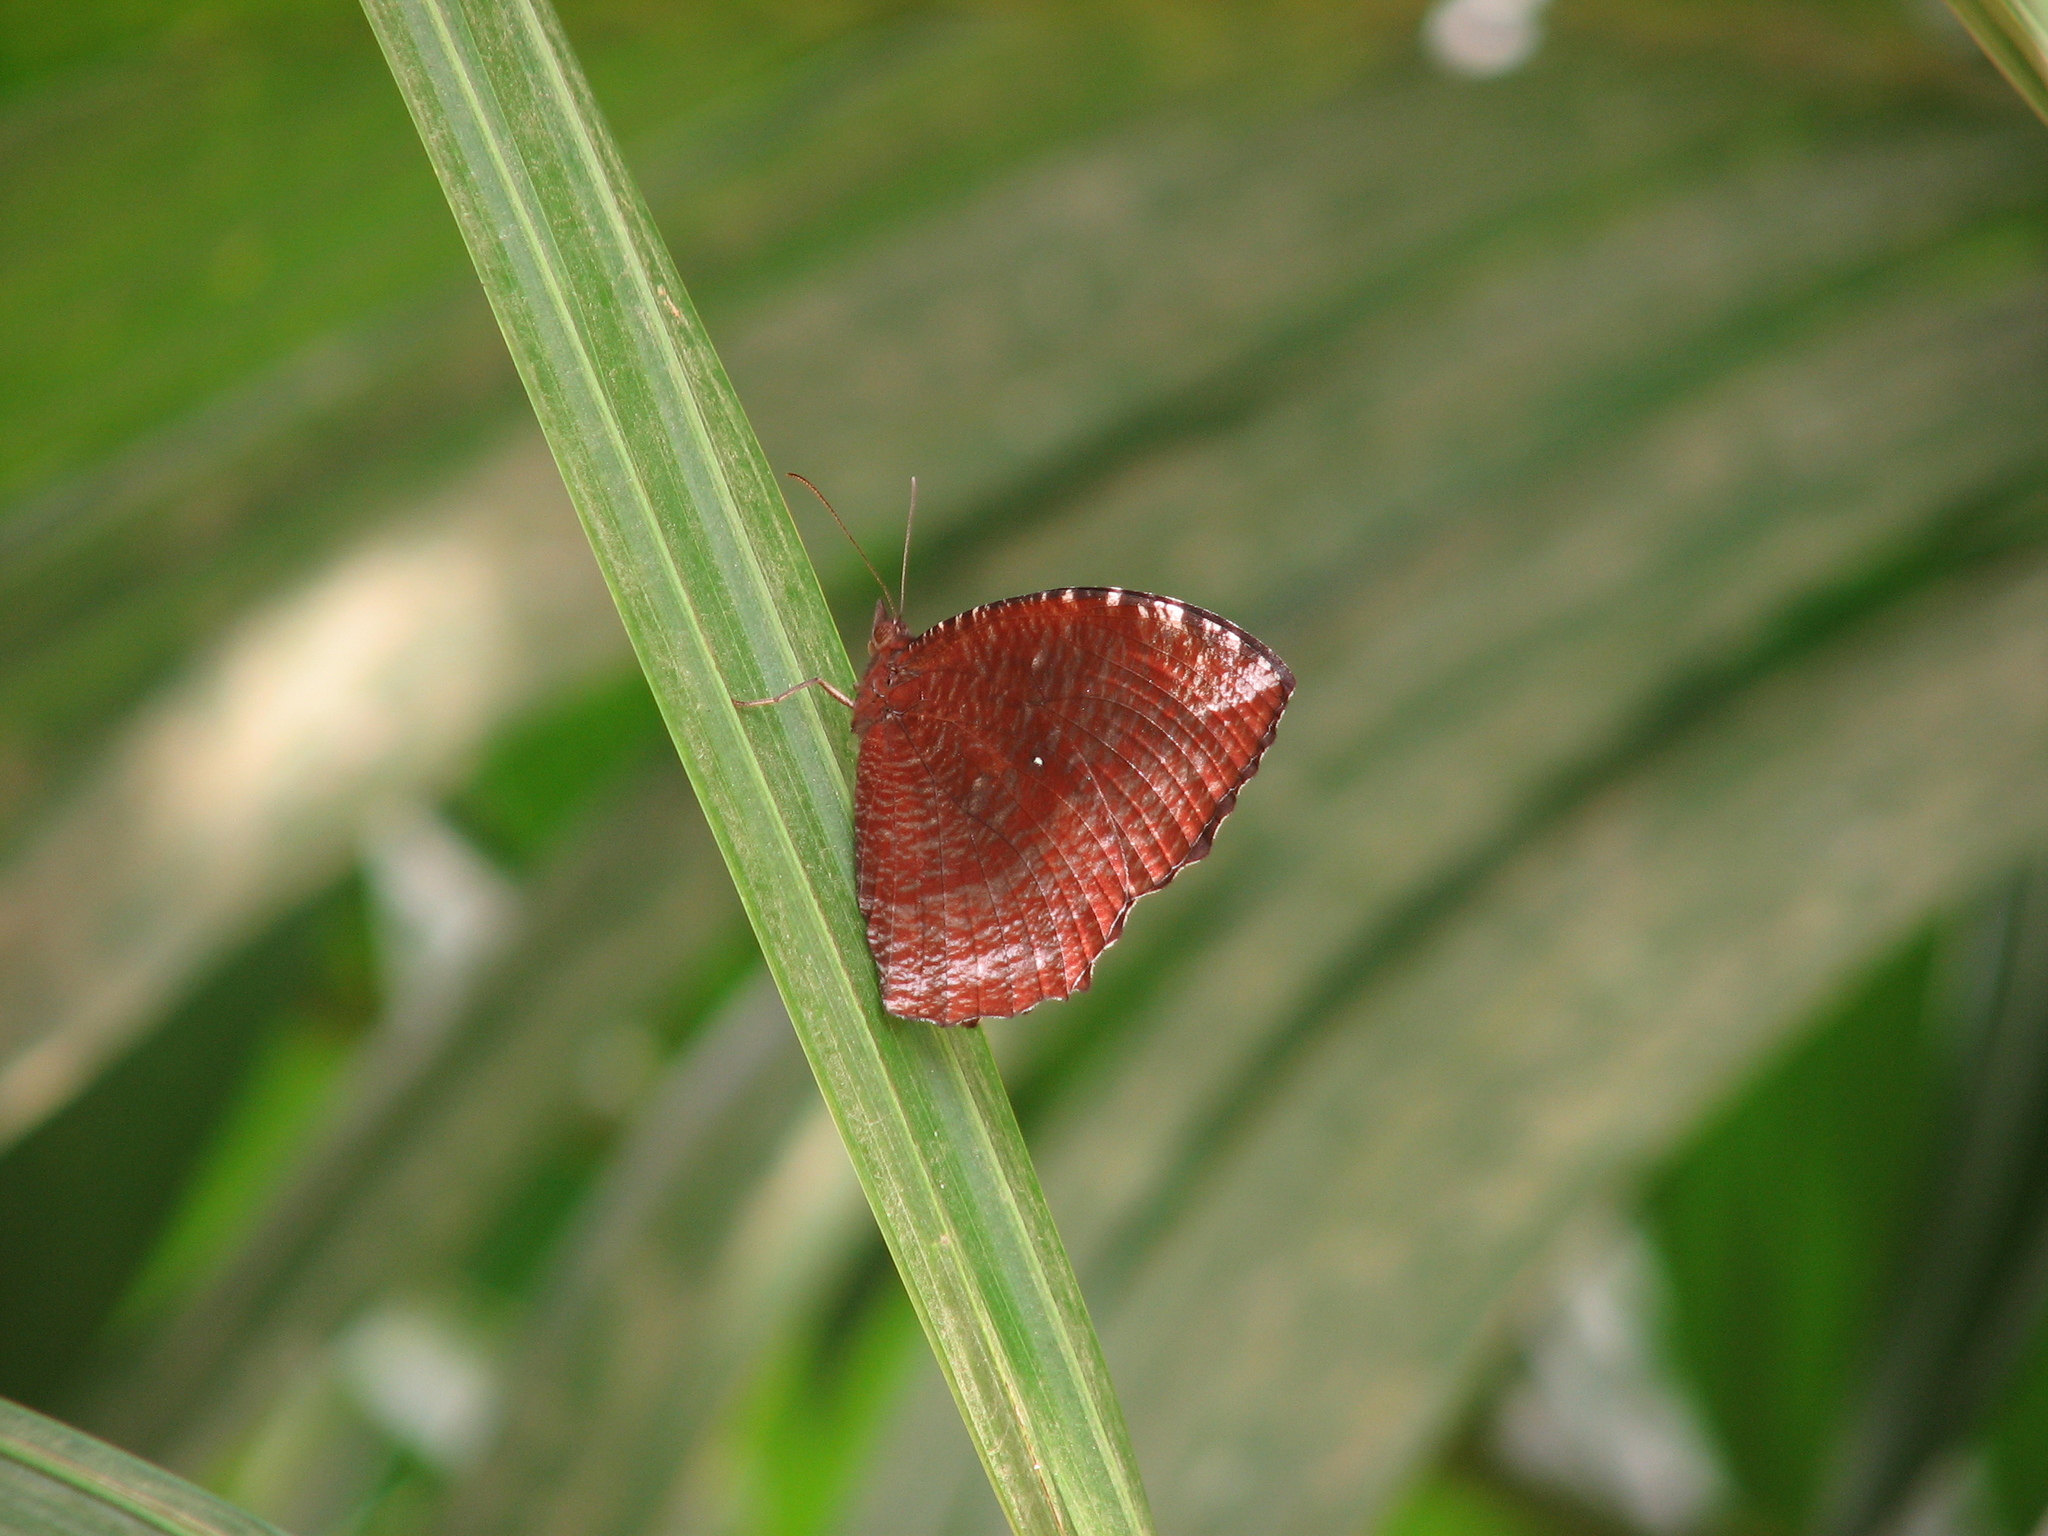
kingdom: Animalia
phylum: Arthropoda
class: Insecta
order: Lepidoptera
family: Nymphalidae
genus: Elymnias
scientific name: Elymnias hypermnestra
